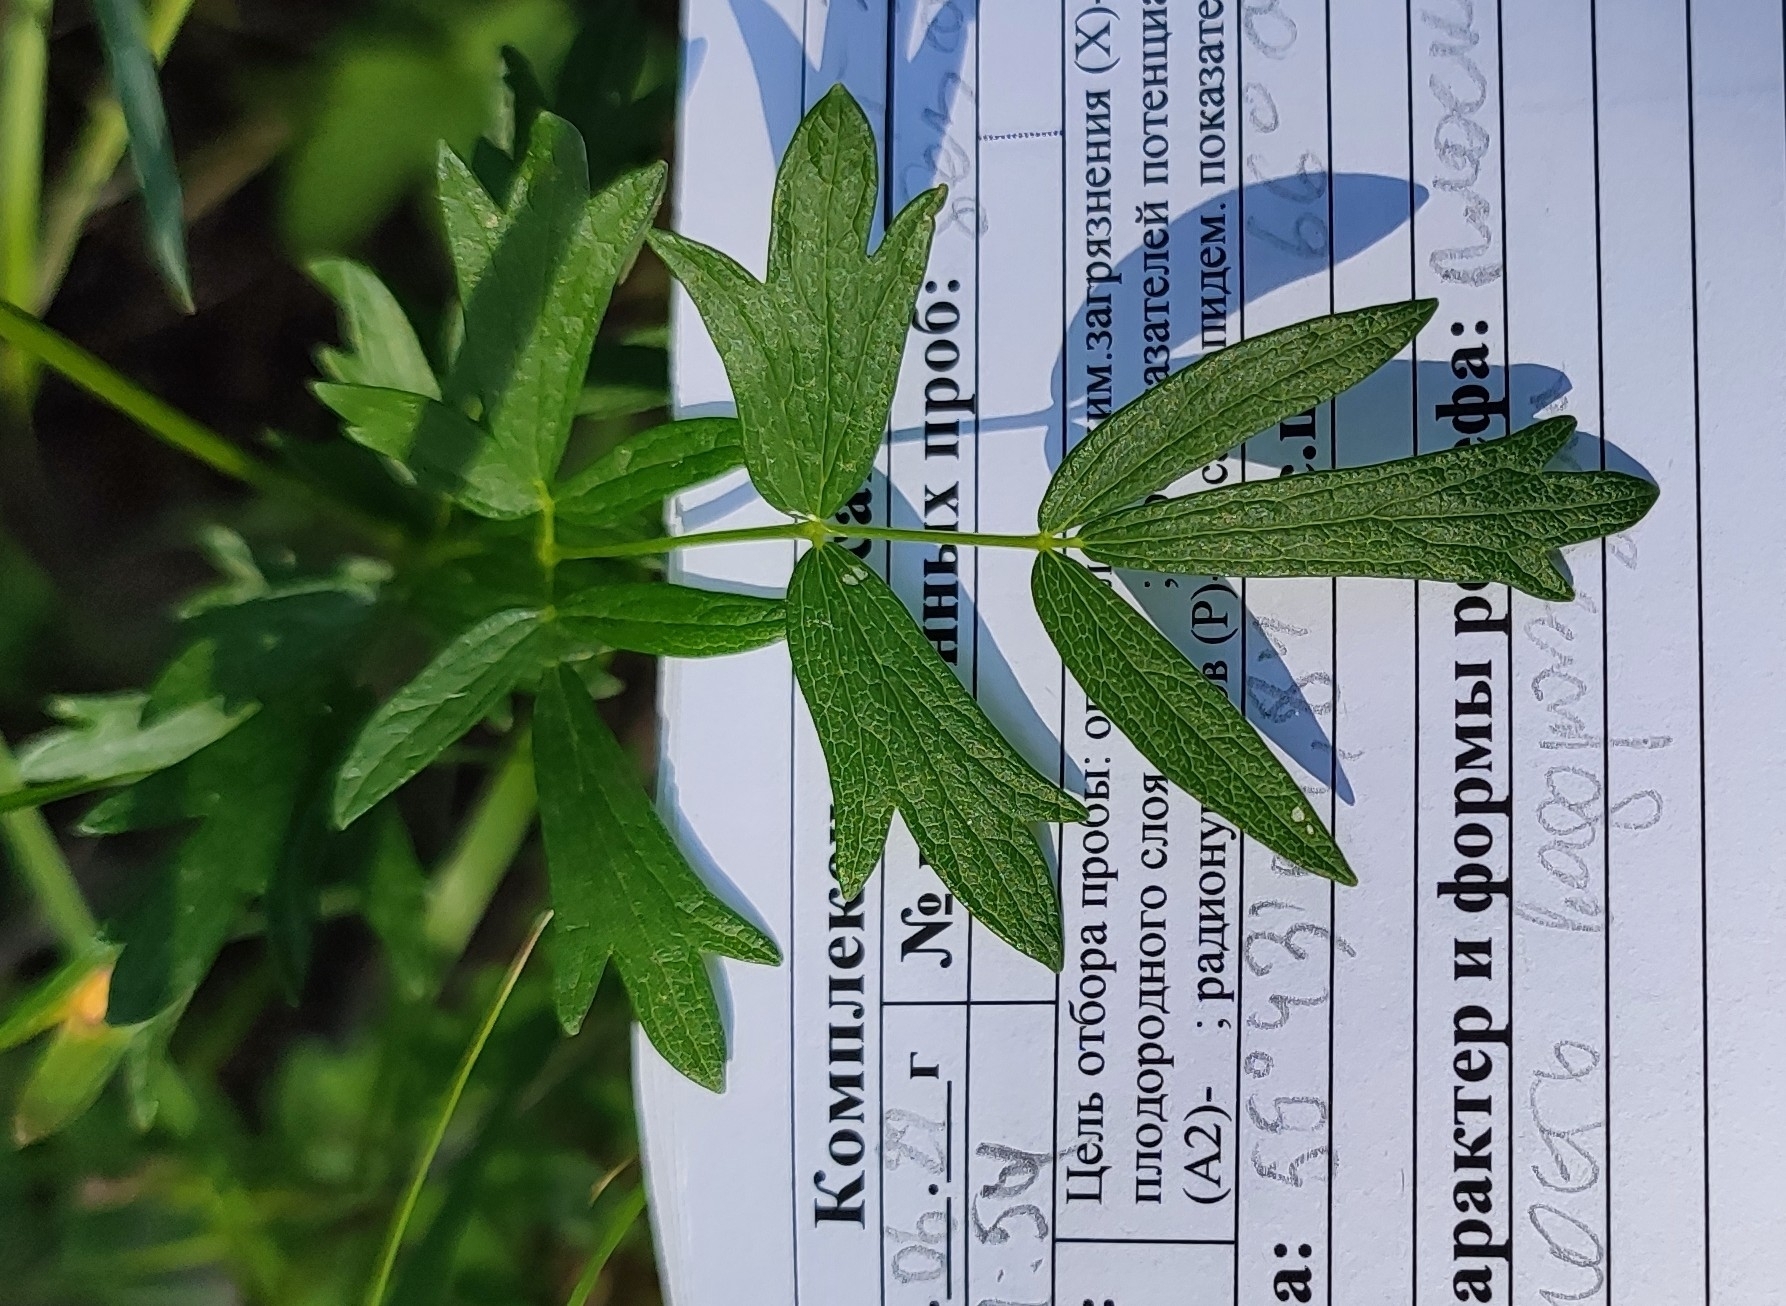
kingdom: Plantae
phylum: Tracheophyta
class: Magnoliopsida
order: Ranunculales
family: Ranunculaceae
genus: Thalictrum
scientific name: Thalictrum flavum
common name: Common meadow-rue
